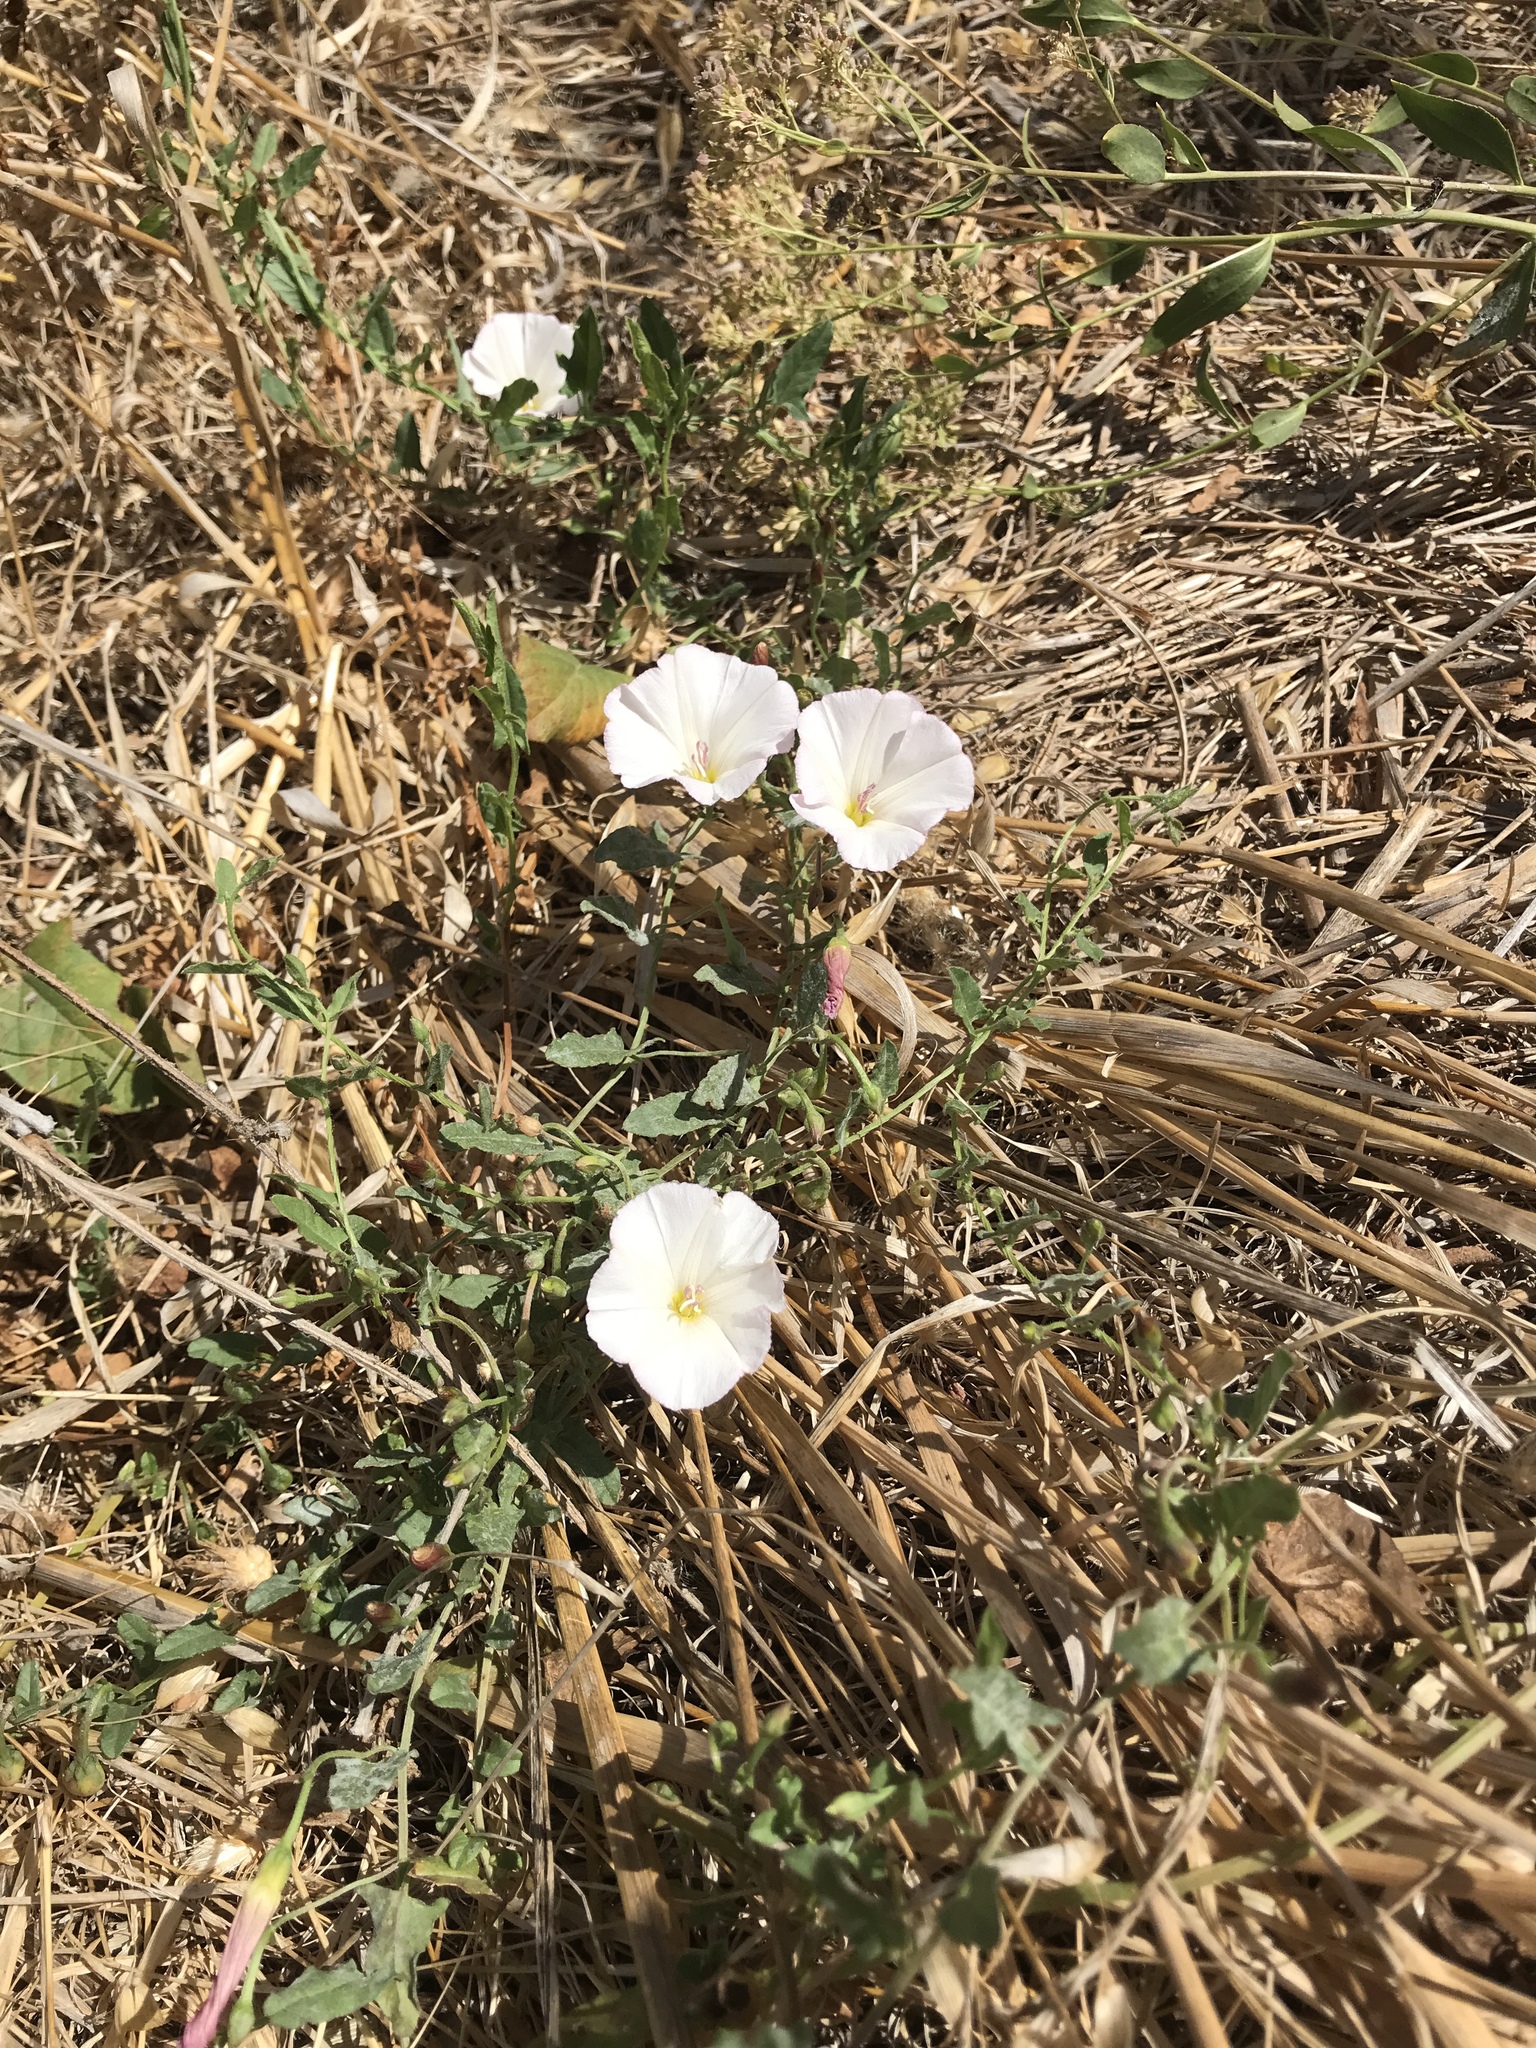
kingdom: Plantae
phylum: Tracheophyta
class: Magnoliopsida
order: Solanales
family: Convolvulaceae
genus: Convolvulus
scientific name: Convolvulus arvensis
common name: Field bindweed
